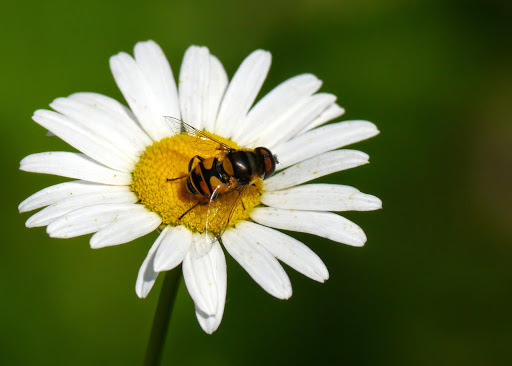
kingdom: Animalia
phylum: Arthropoda
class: Insecta
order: Diptera
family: Syrphidae
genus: Eristalis
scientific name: Eristalis transversa
